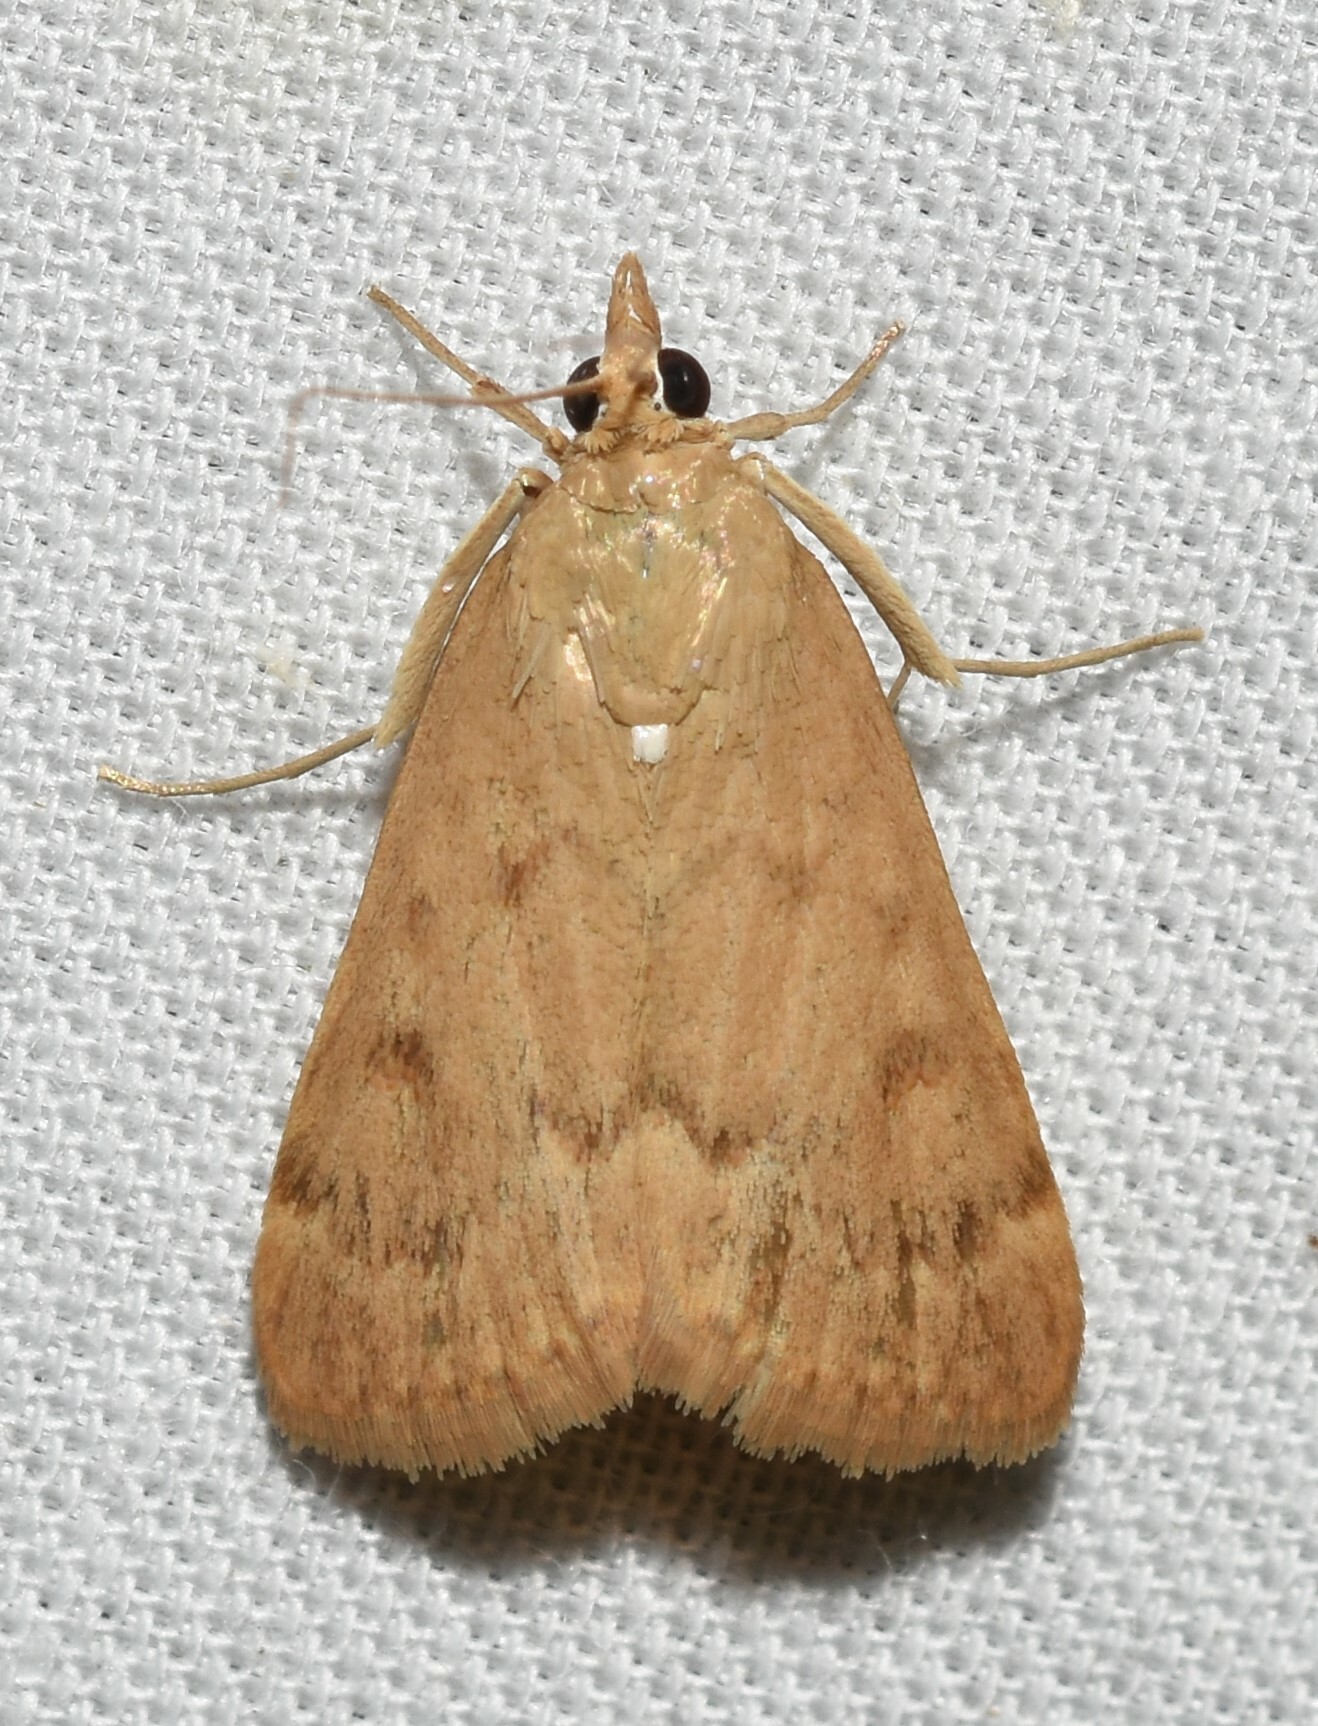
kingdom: Animalia
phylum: Arthropoda
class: Insecta
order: Lepidoptera
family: Crambidae
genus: Achyra
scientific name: Achyra rantalis
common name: Garden webworm
